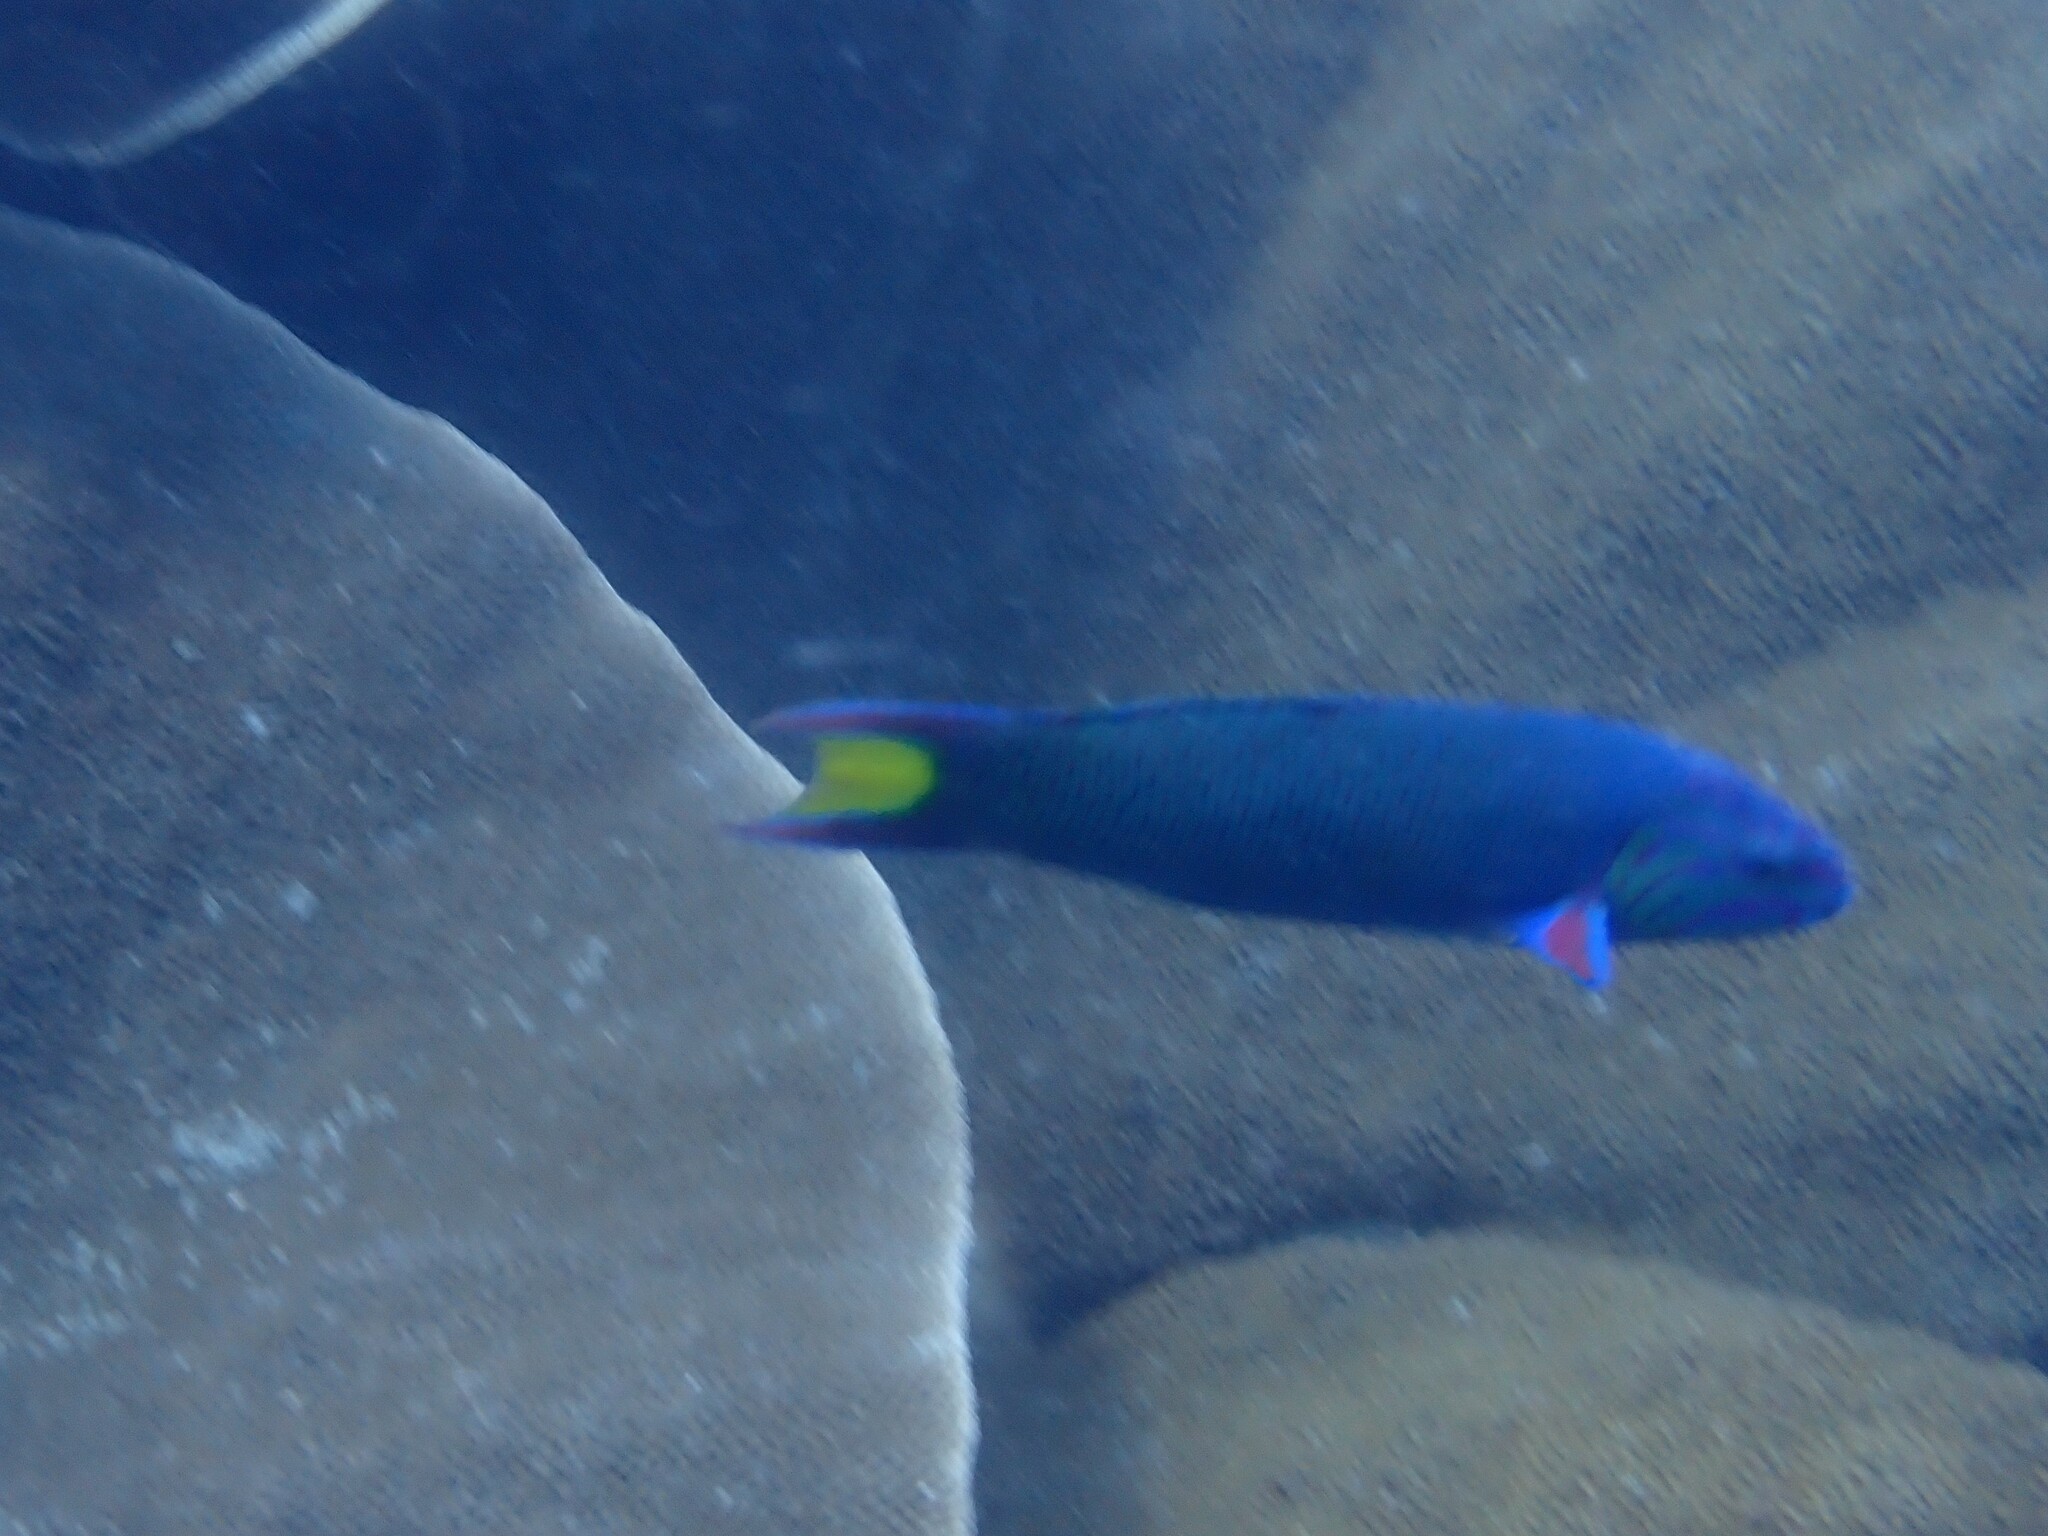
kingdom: Animalia
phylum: Chordata
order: Perciformes
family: Labridae
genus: Thalassoma
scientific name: Thalassoma lunare
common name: Blue wrasse
